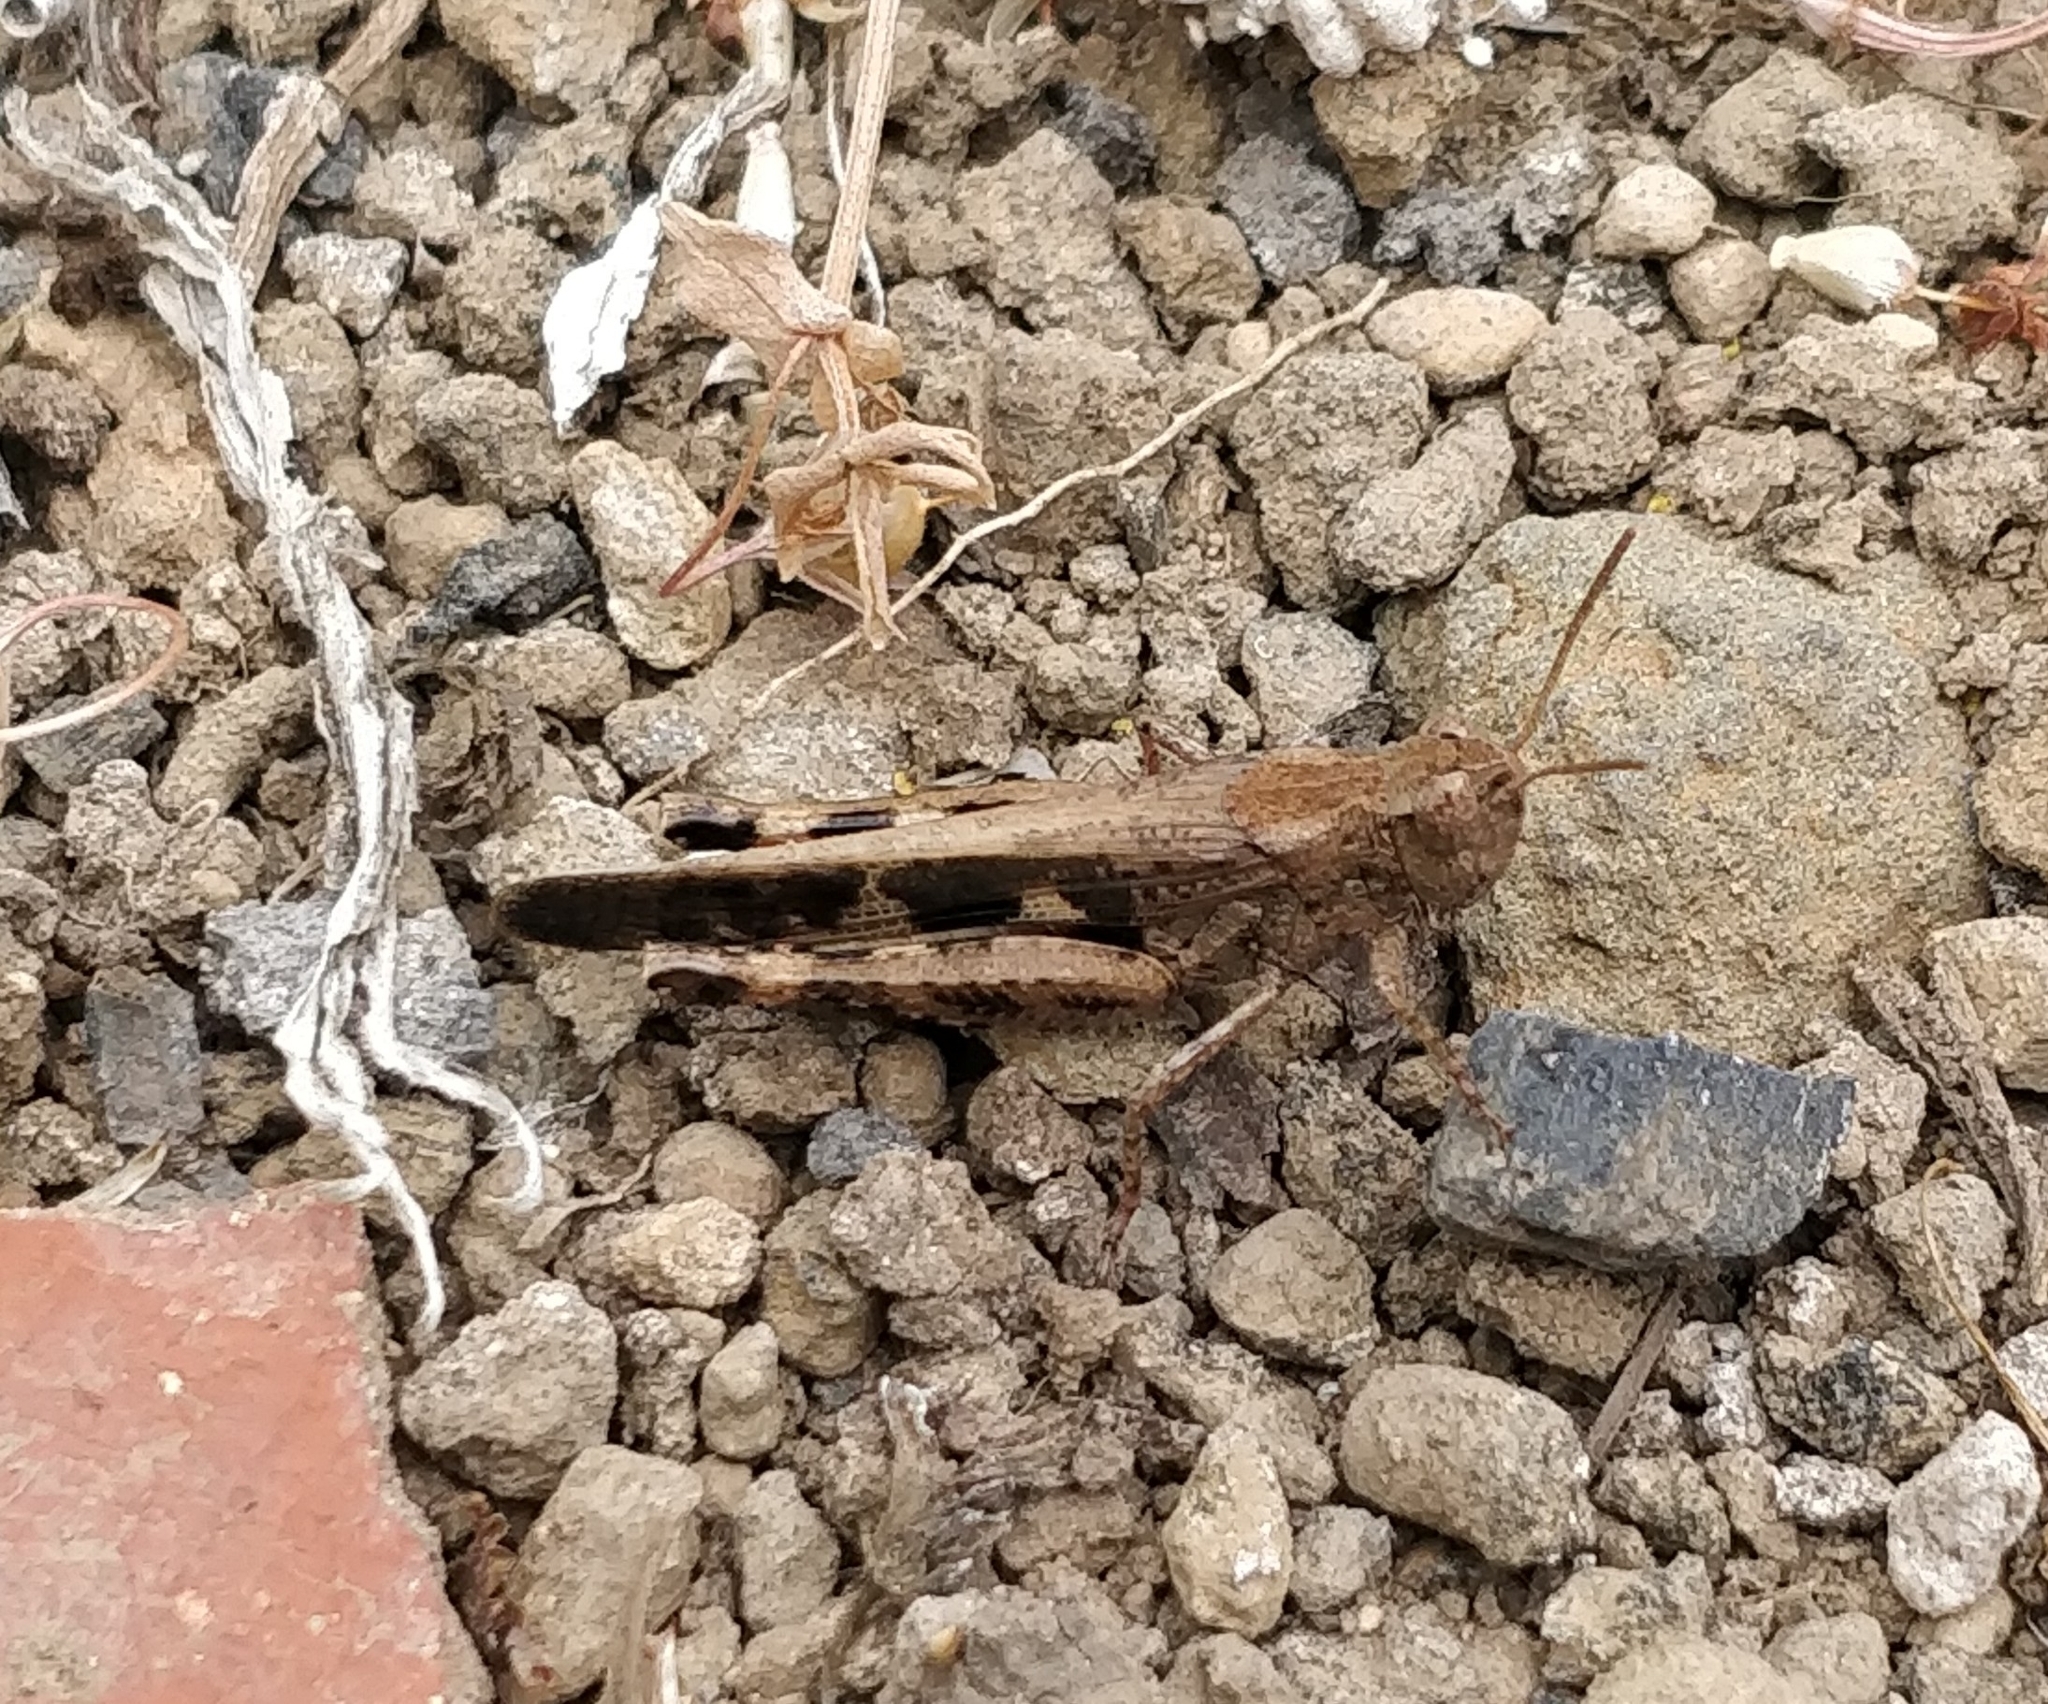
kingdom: Animalia
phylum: Arthropoda
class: Insecta
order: Orthoptera
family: Acrididae
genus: Aiolopus
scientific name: Aiolopus strepens
